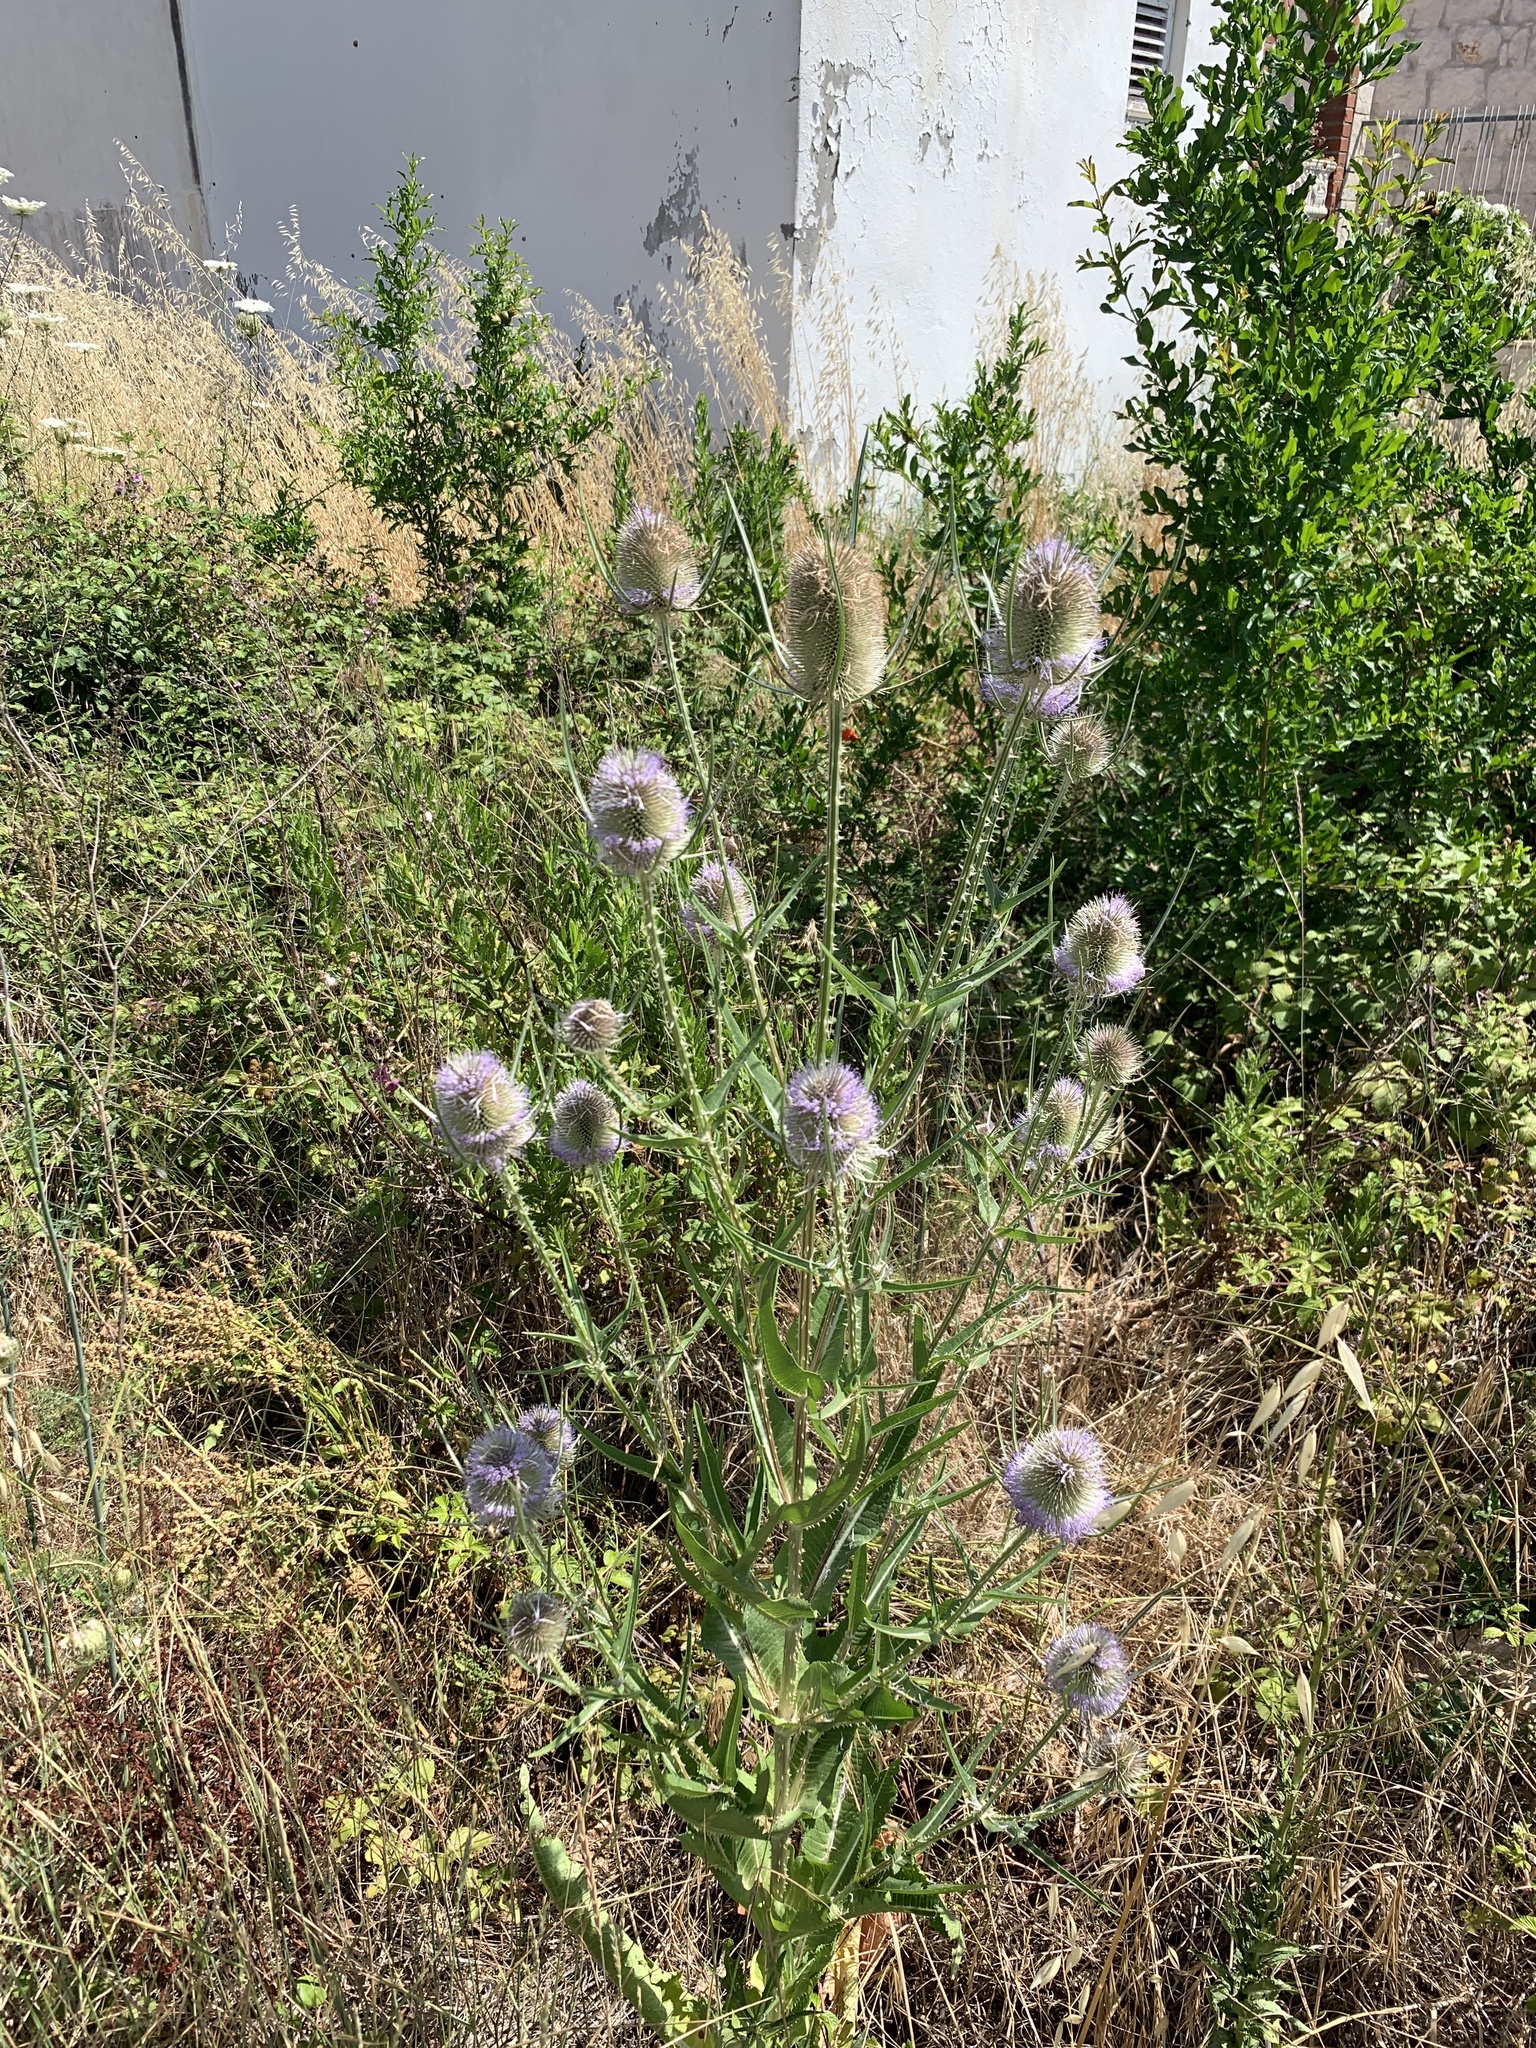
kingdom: Plantae
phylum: Tracheophyta
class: Magnoliopsida
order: Dipsacales
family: Caprifoliaceae
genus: Dipsacus
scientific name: Dipsacus fullonum
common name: Teasel
